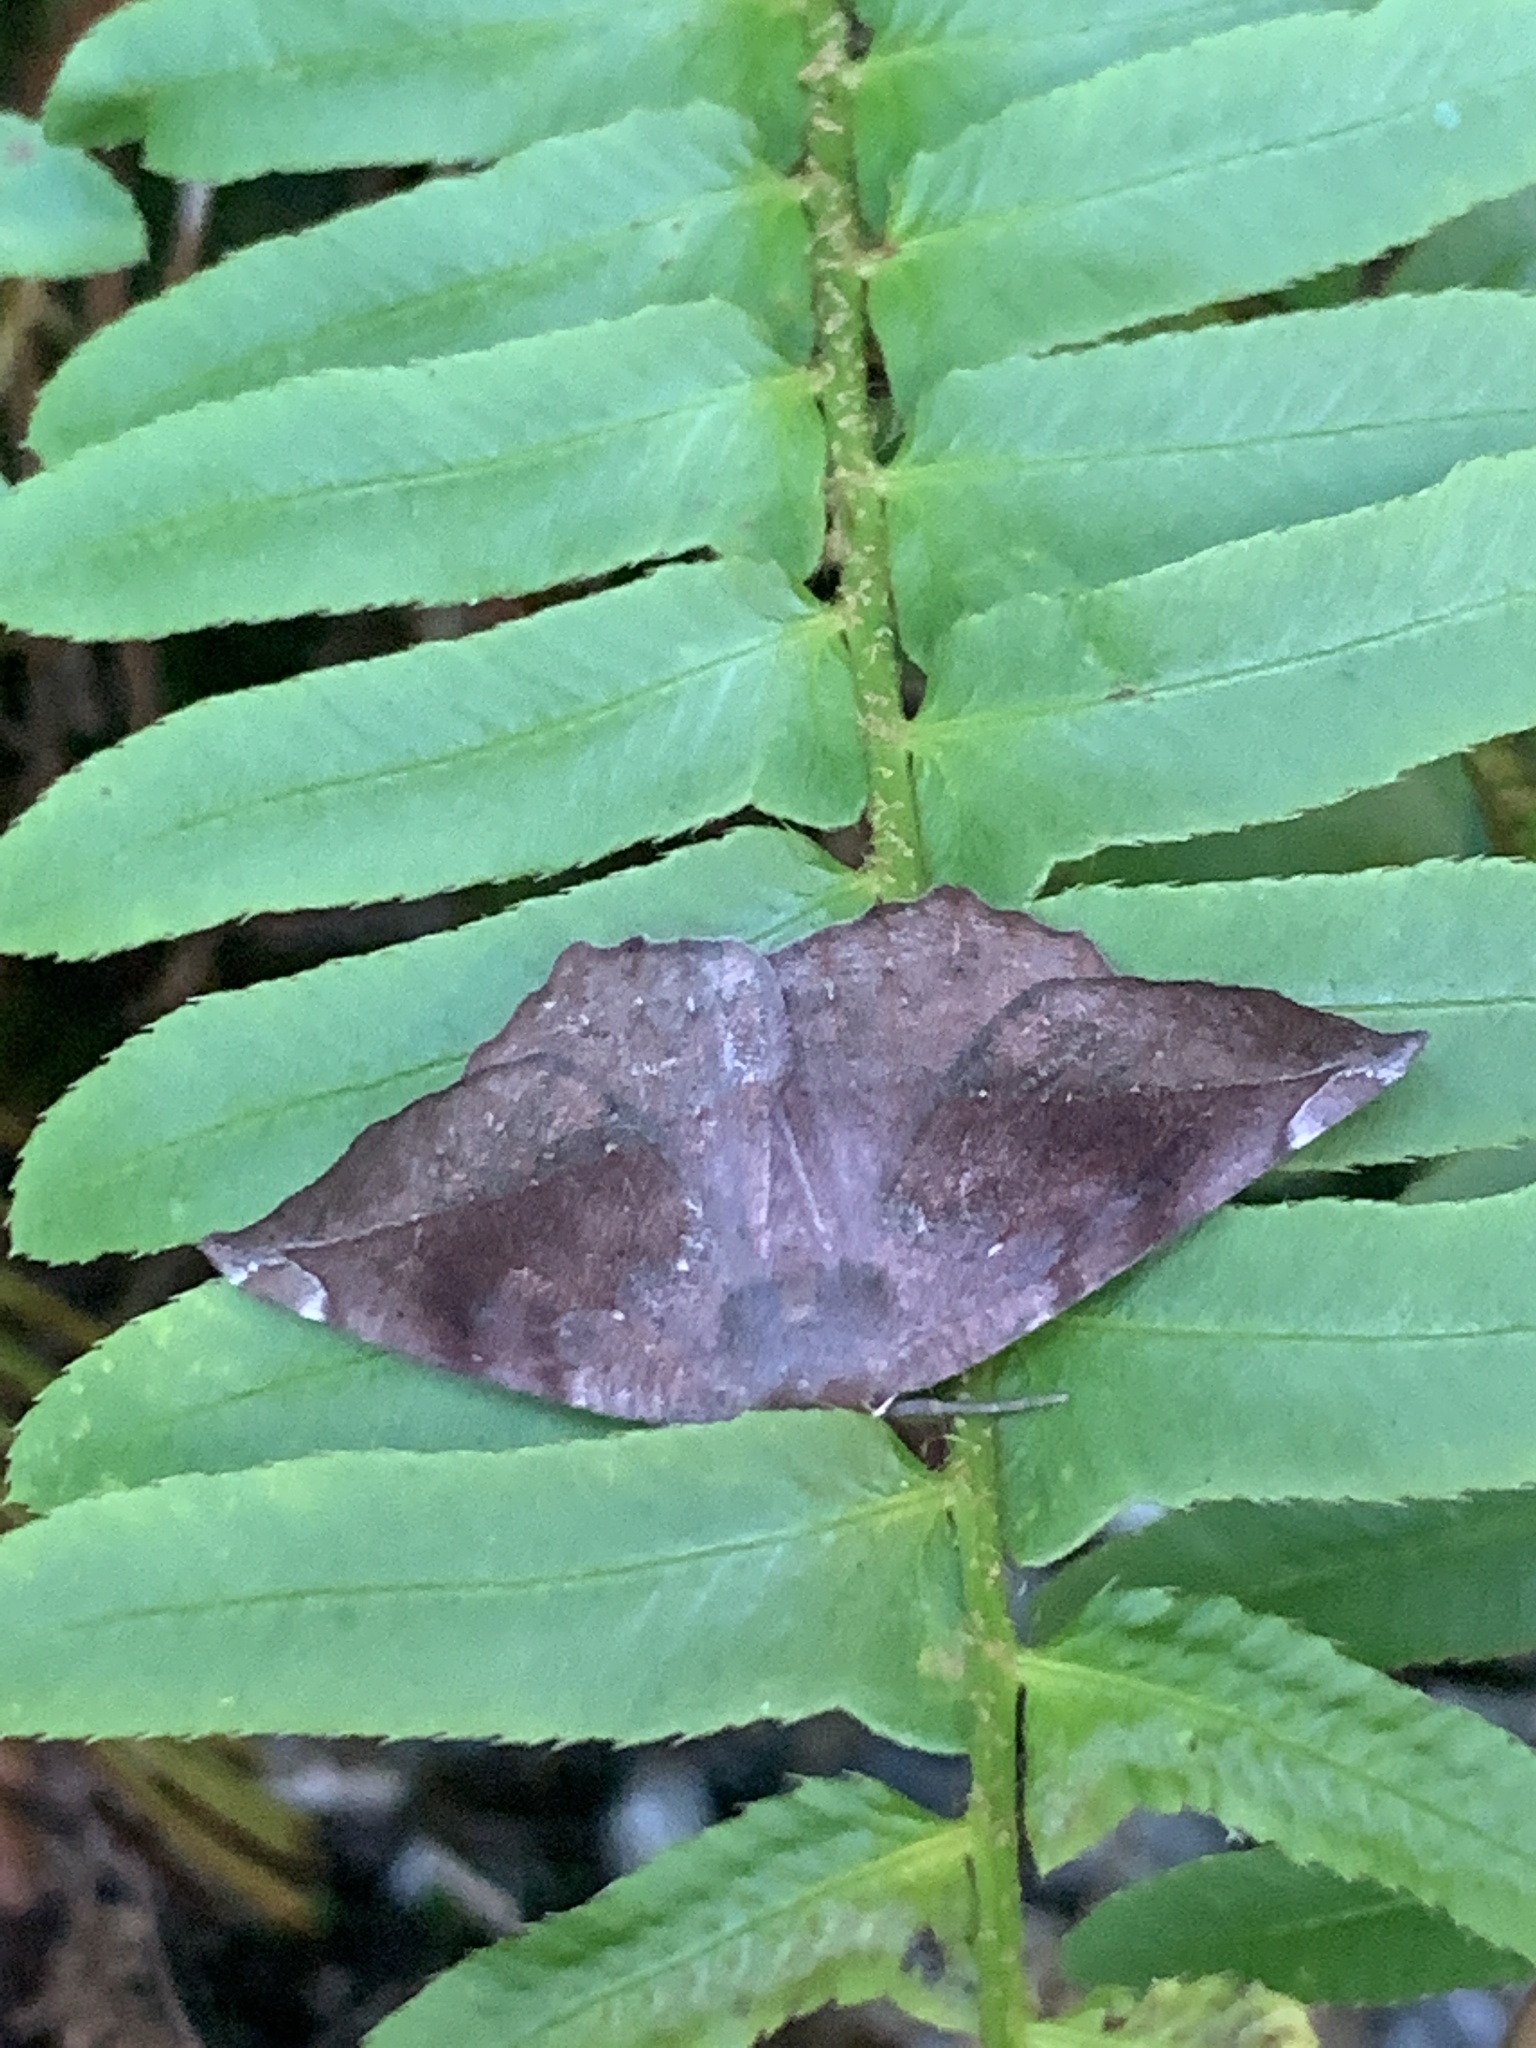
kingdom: Animalia
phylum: Arthropoda
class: Insecta
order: Lepidoptera
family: Geometridae
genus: Eutrapela
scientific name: Eutrapela clemataria
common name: Curved-toothed geometer
